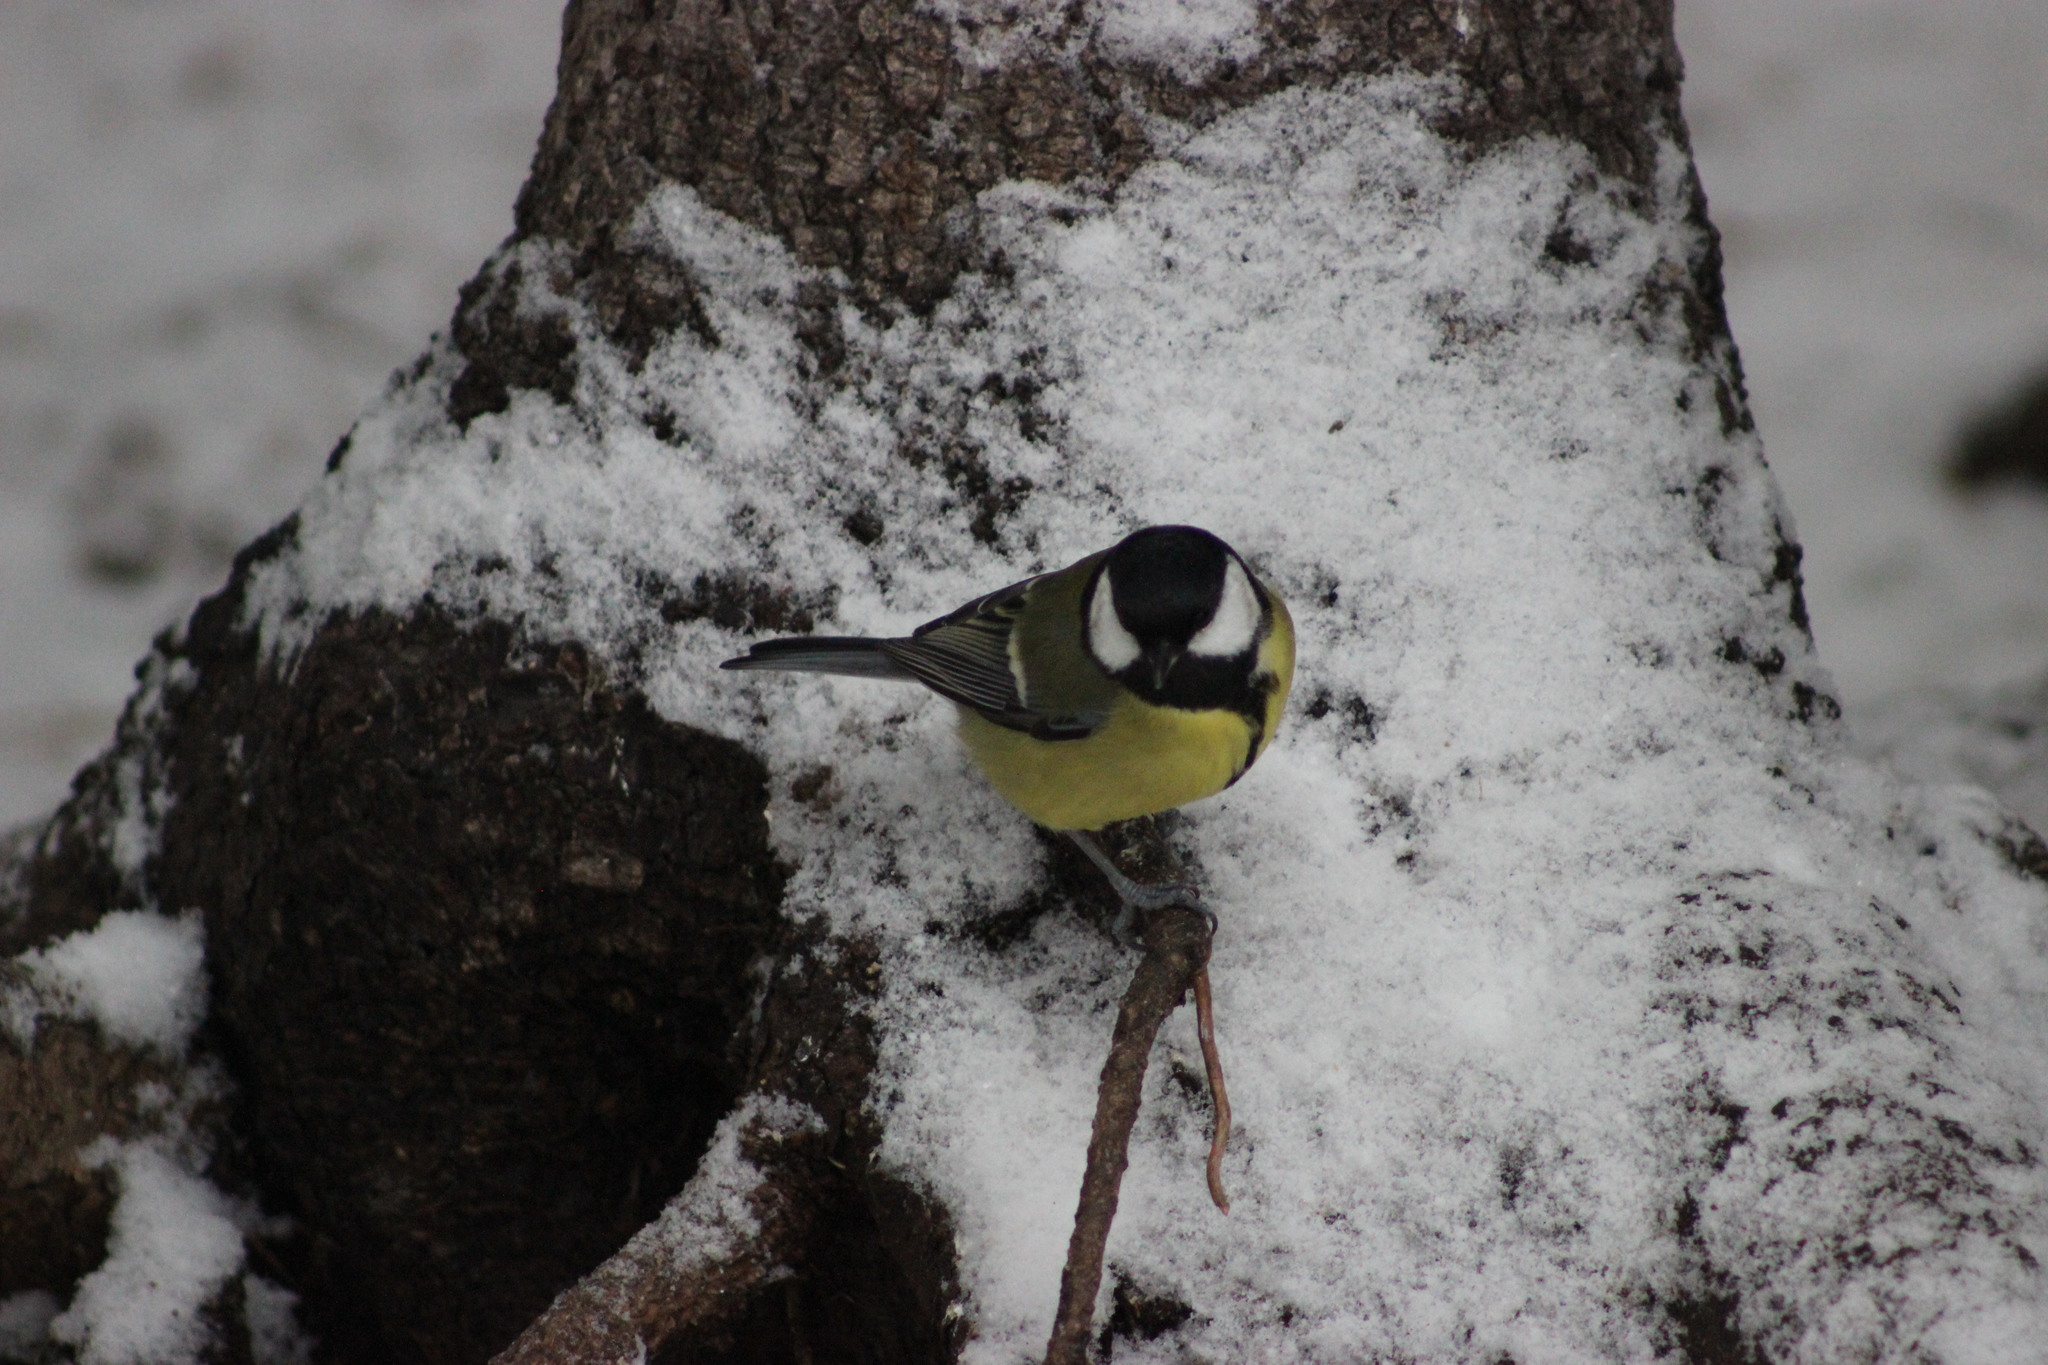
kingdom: Animalia
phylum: Chordata
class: Aves
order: Passeriformes
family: Paridae
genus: Parus
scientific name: Parus major
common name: Great tit
